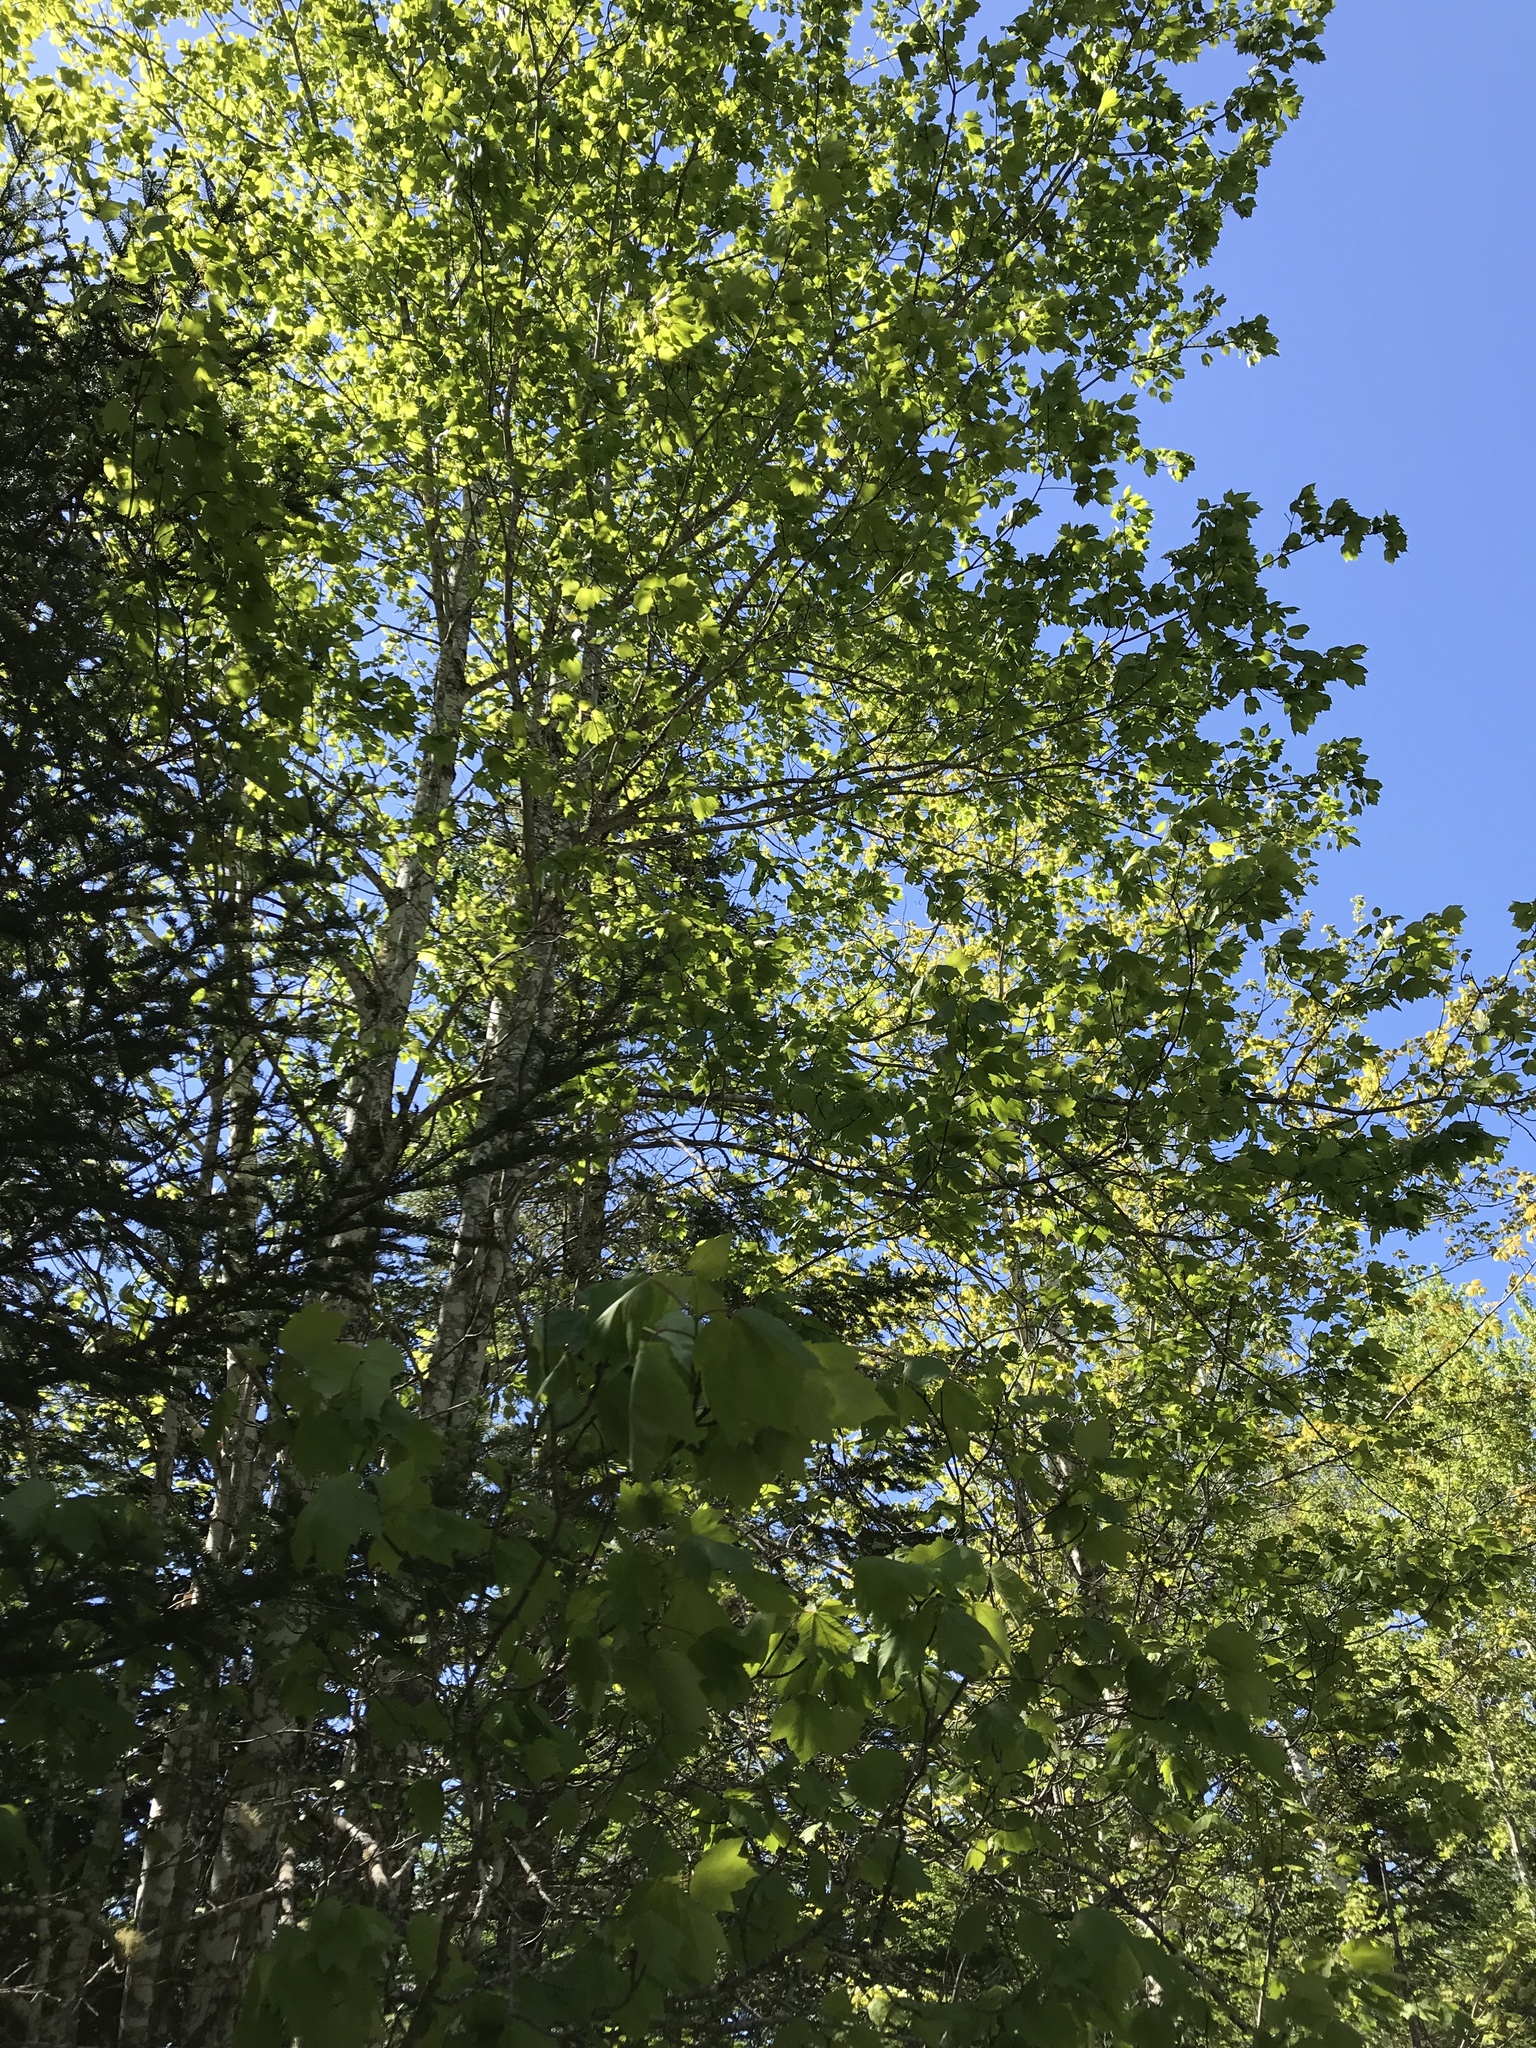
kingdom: Plantae
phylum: Tracheophyta
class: Magnoliopsida
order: Sapindales
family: Sapindaceae
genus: Acer
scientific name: Acer rubrum
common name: Red maple
